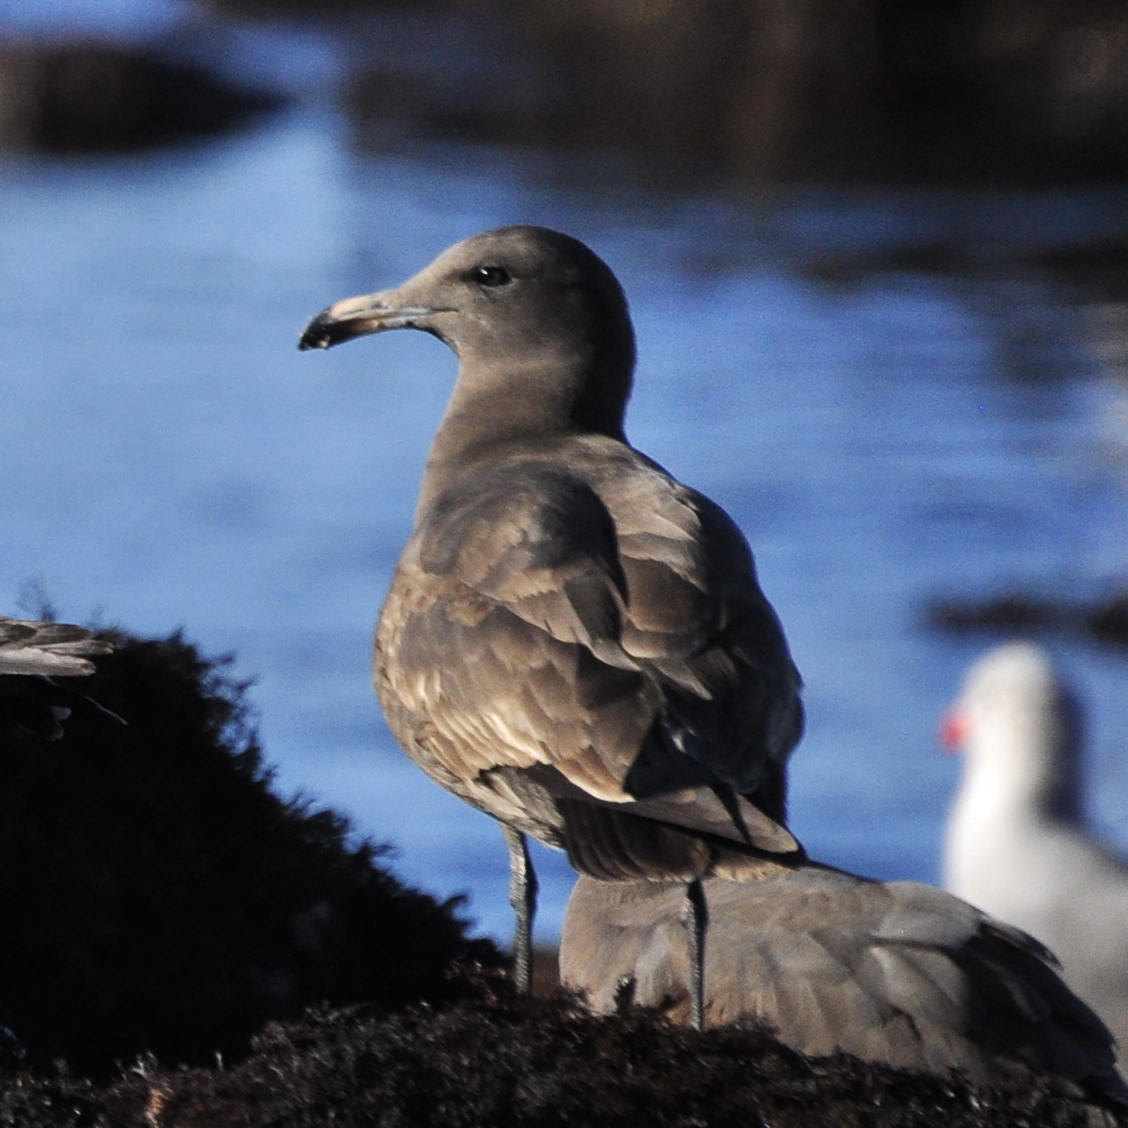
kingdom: Animalia
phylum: Chordata
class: Aves
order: Charadriiformes
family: Laridae
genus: Larus
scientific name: Larus heermanni
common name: Heermann's gull
